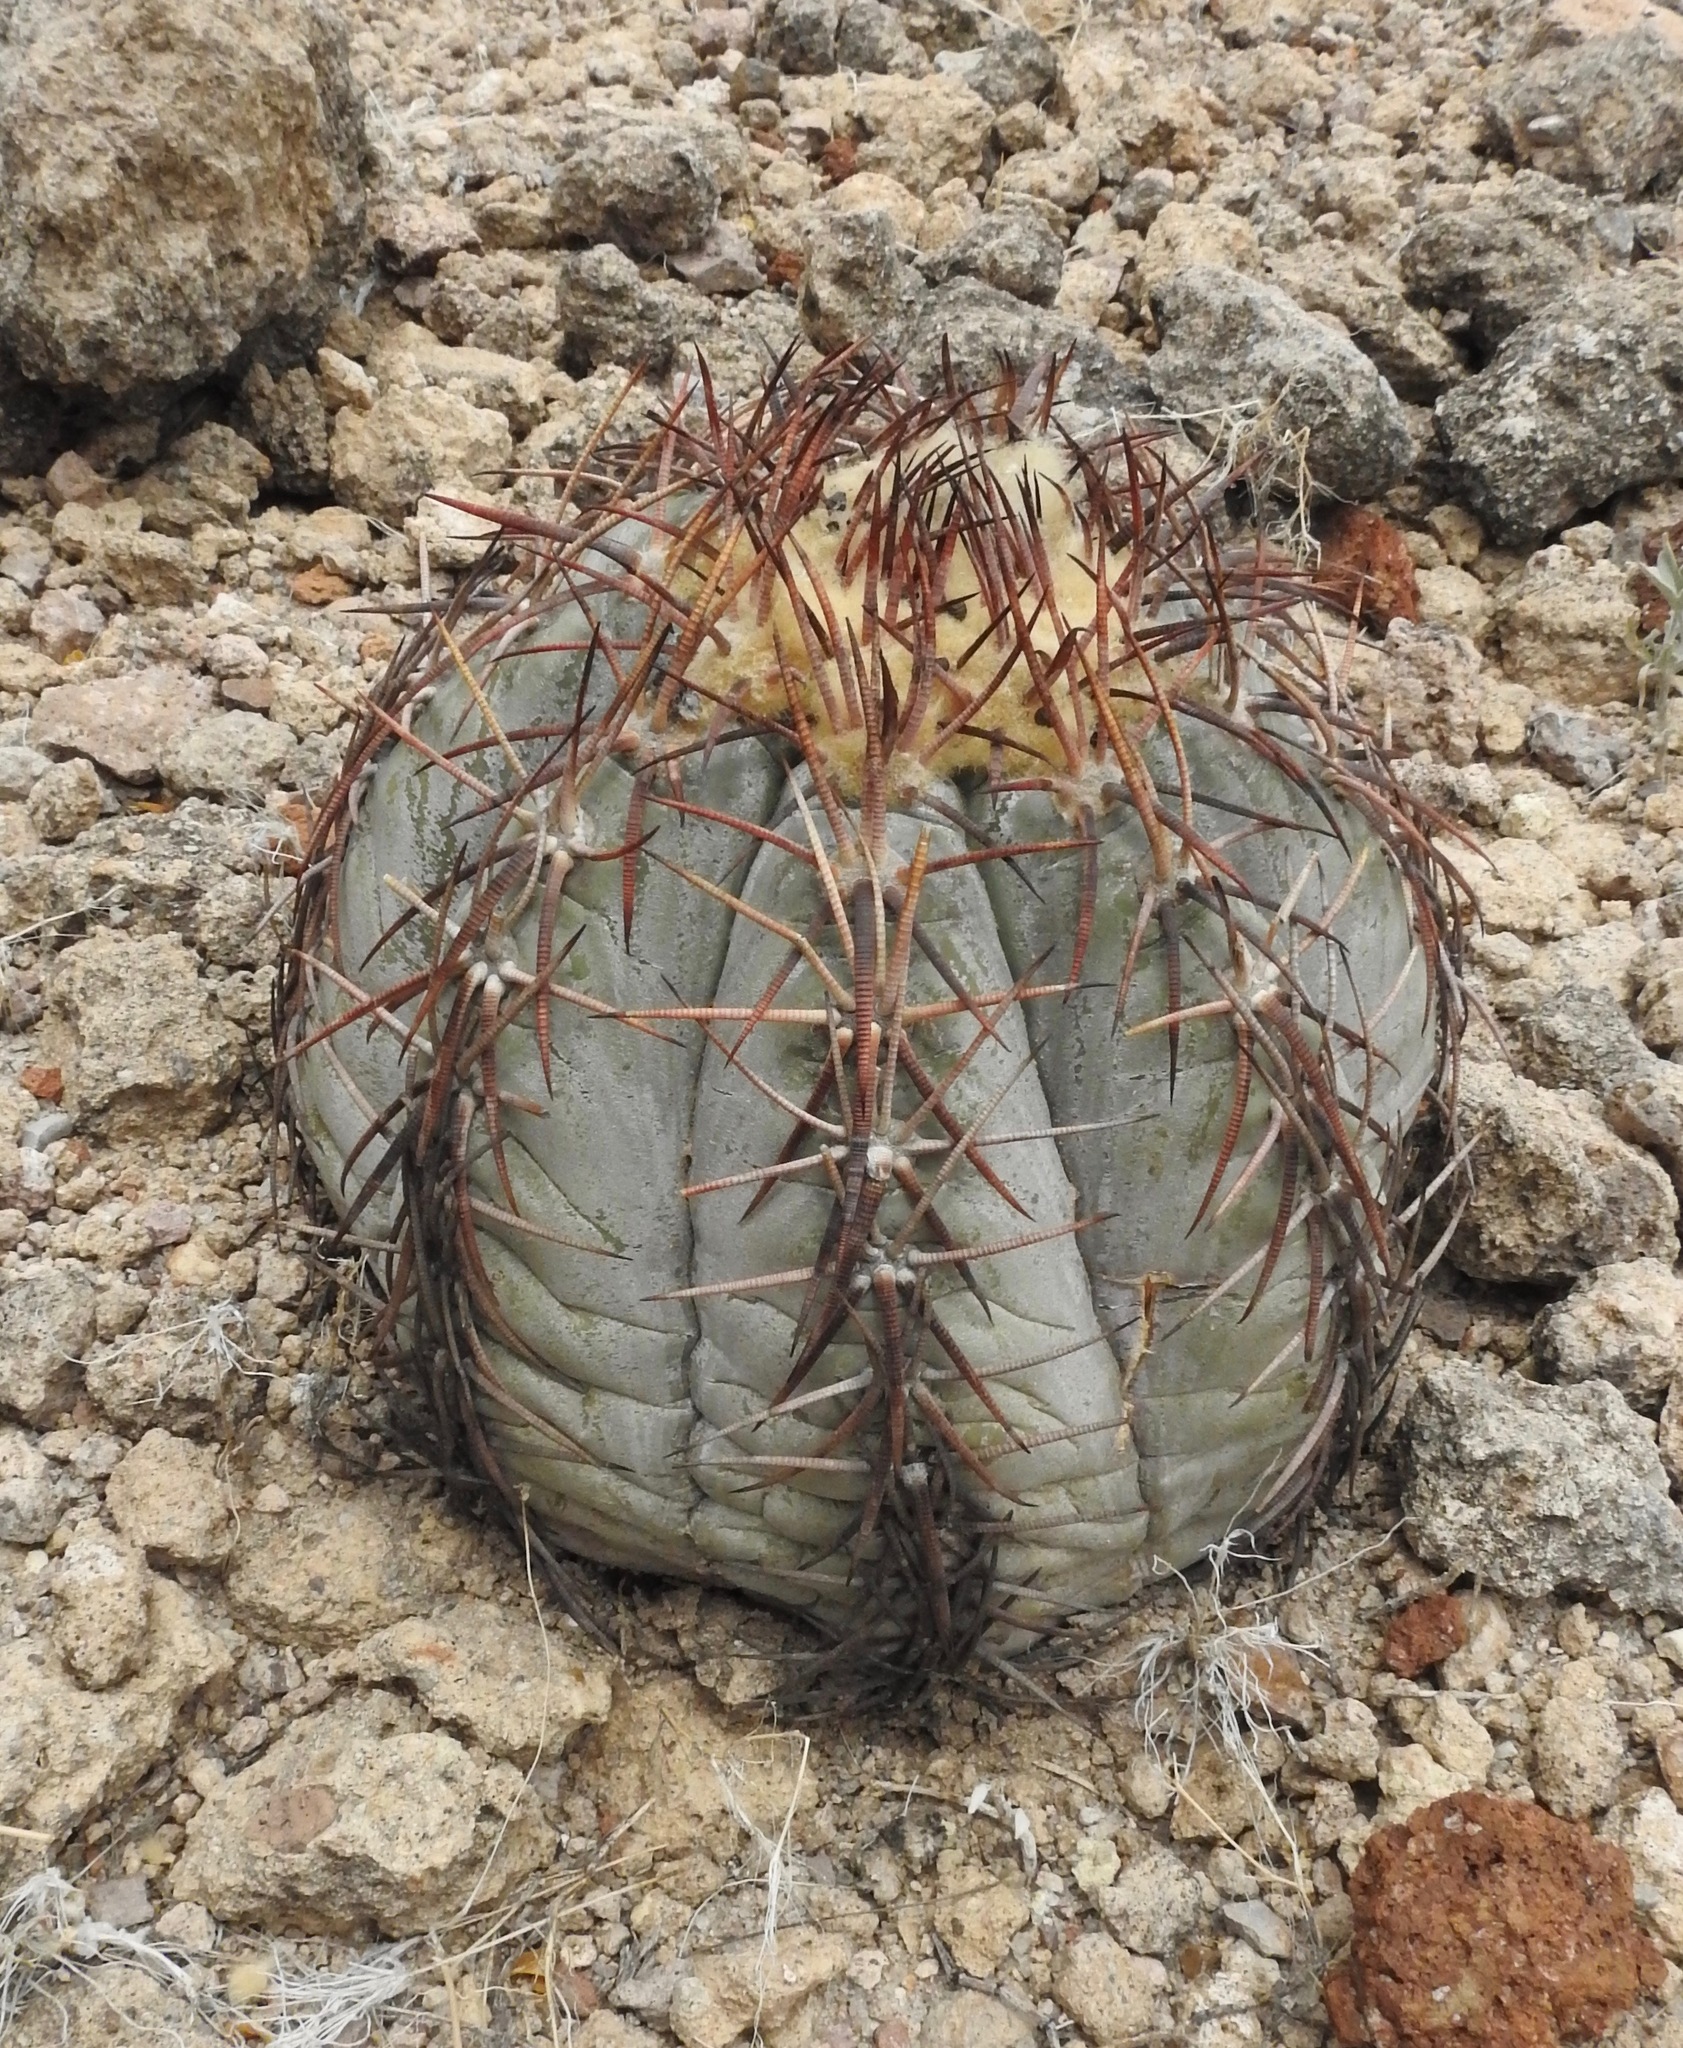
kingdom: Plantae
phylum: Tracheophyta
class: Magnoliopsida
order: Caryophyllales
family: Cactaceae
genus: Echinocactus
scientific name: Echinocactus horizonthalonius
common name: Devilshead
